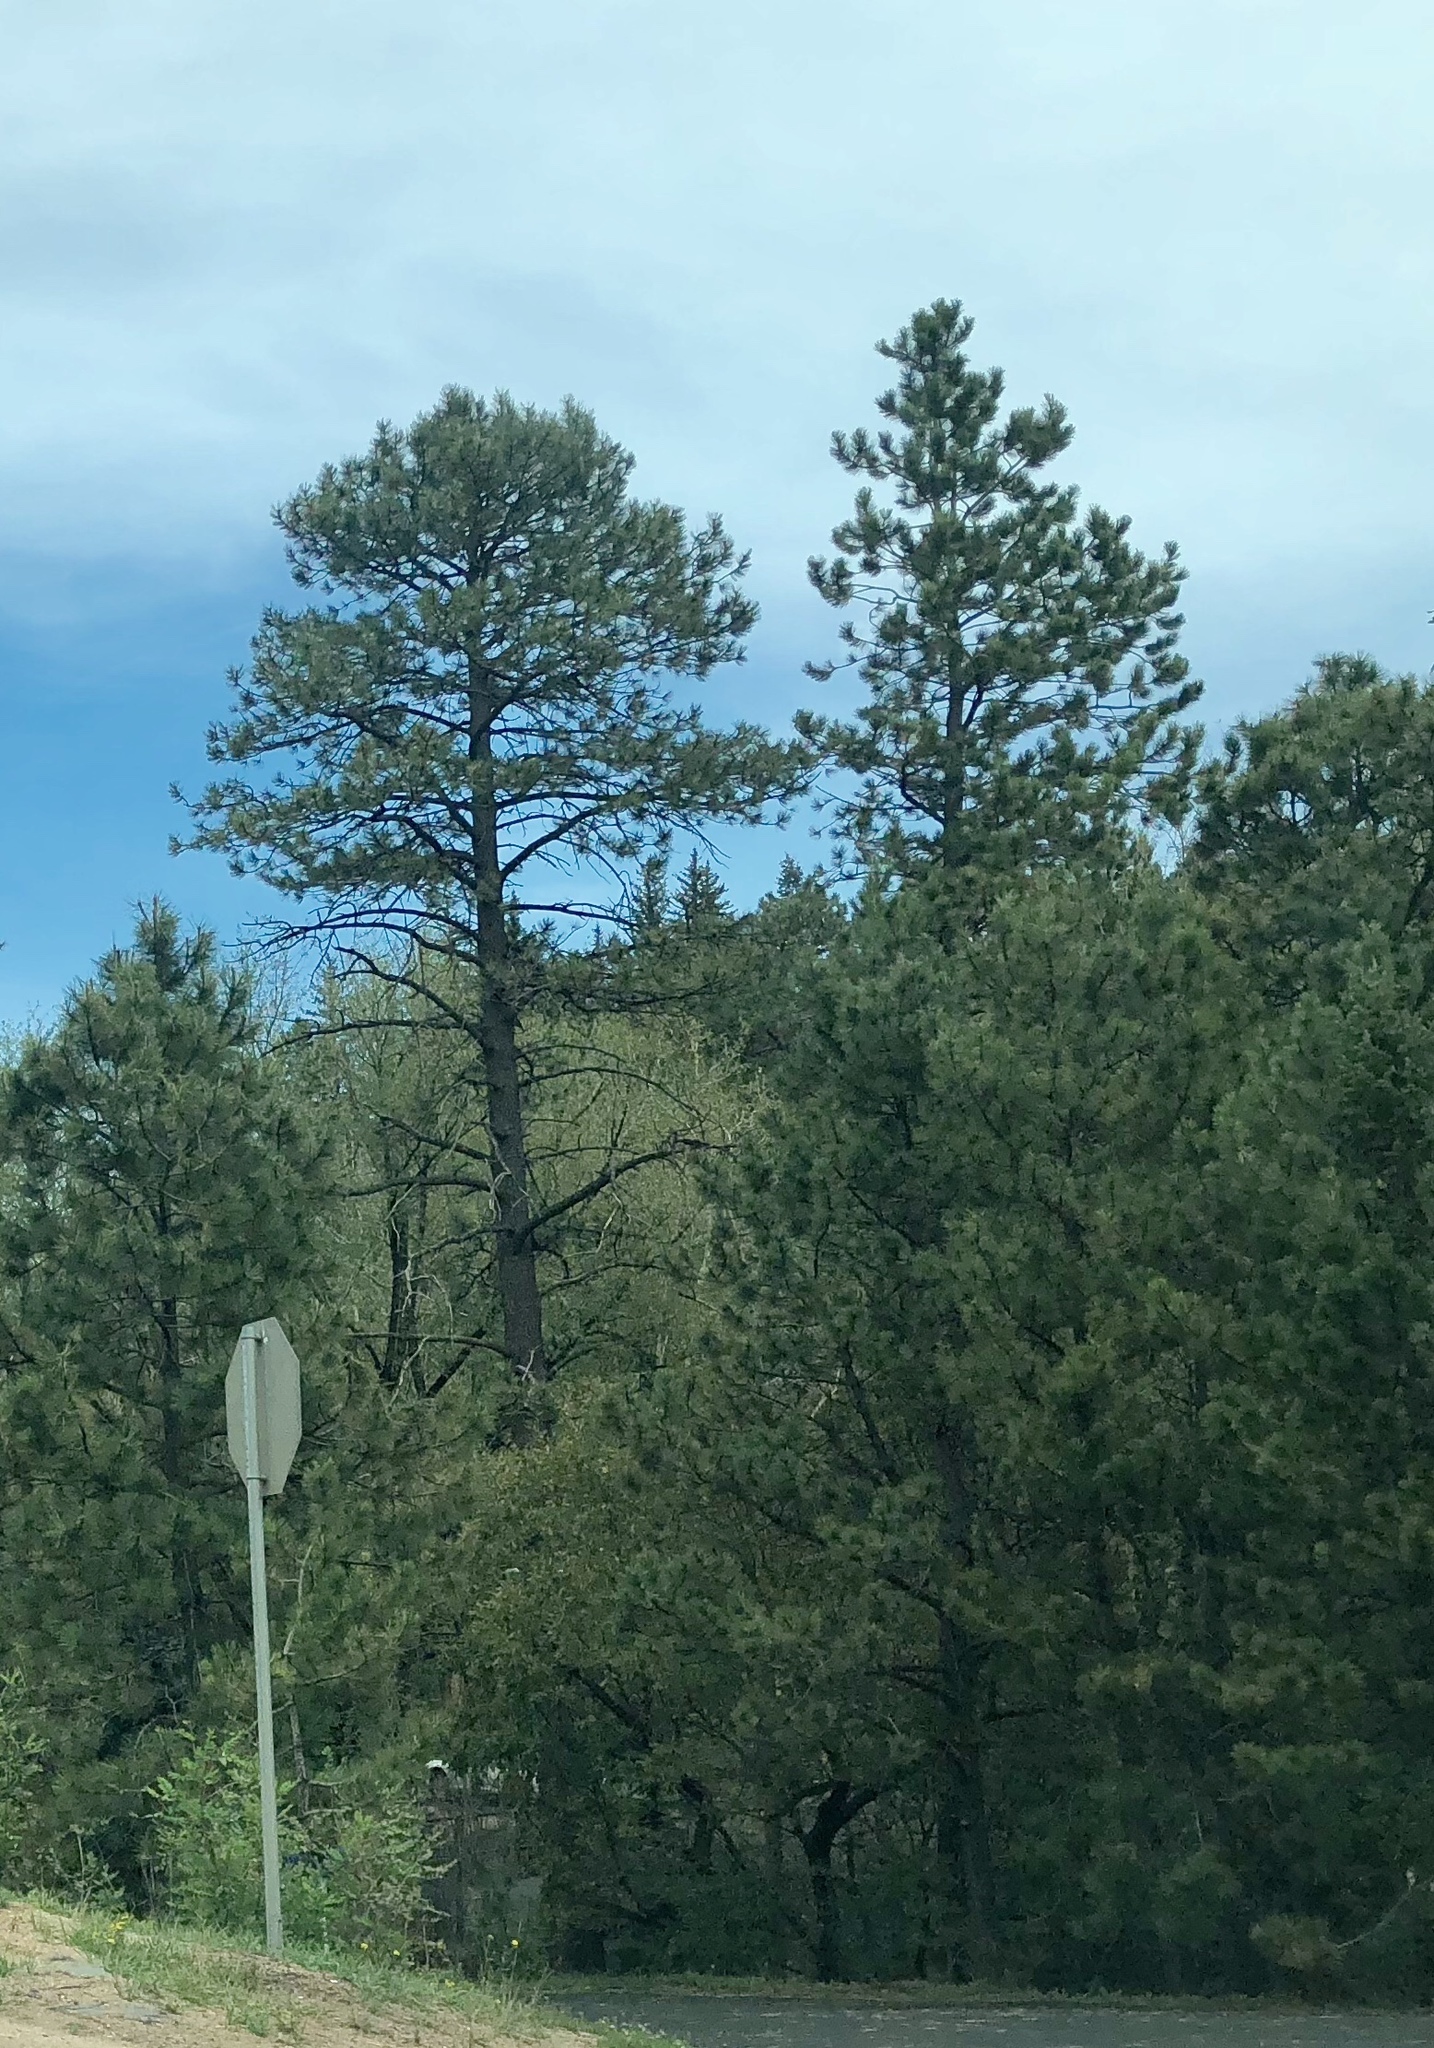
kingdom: Plantae
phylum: Tracheophyta
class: Pinopsida
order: Pinales
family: Pinaceae
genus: Pinus
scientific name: Pinus ponderosa
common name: Western yellow-pine
